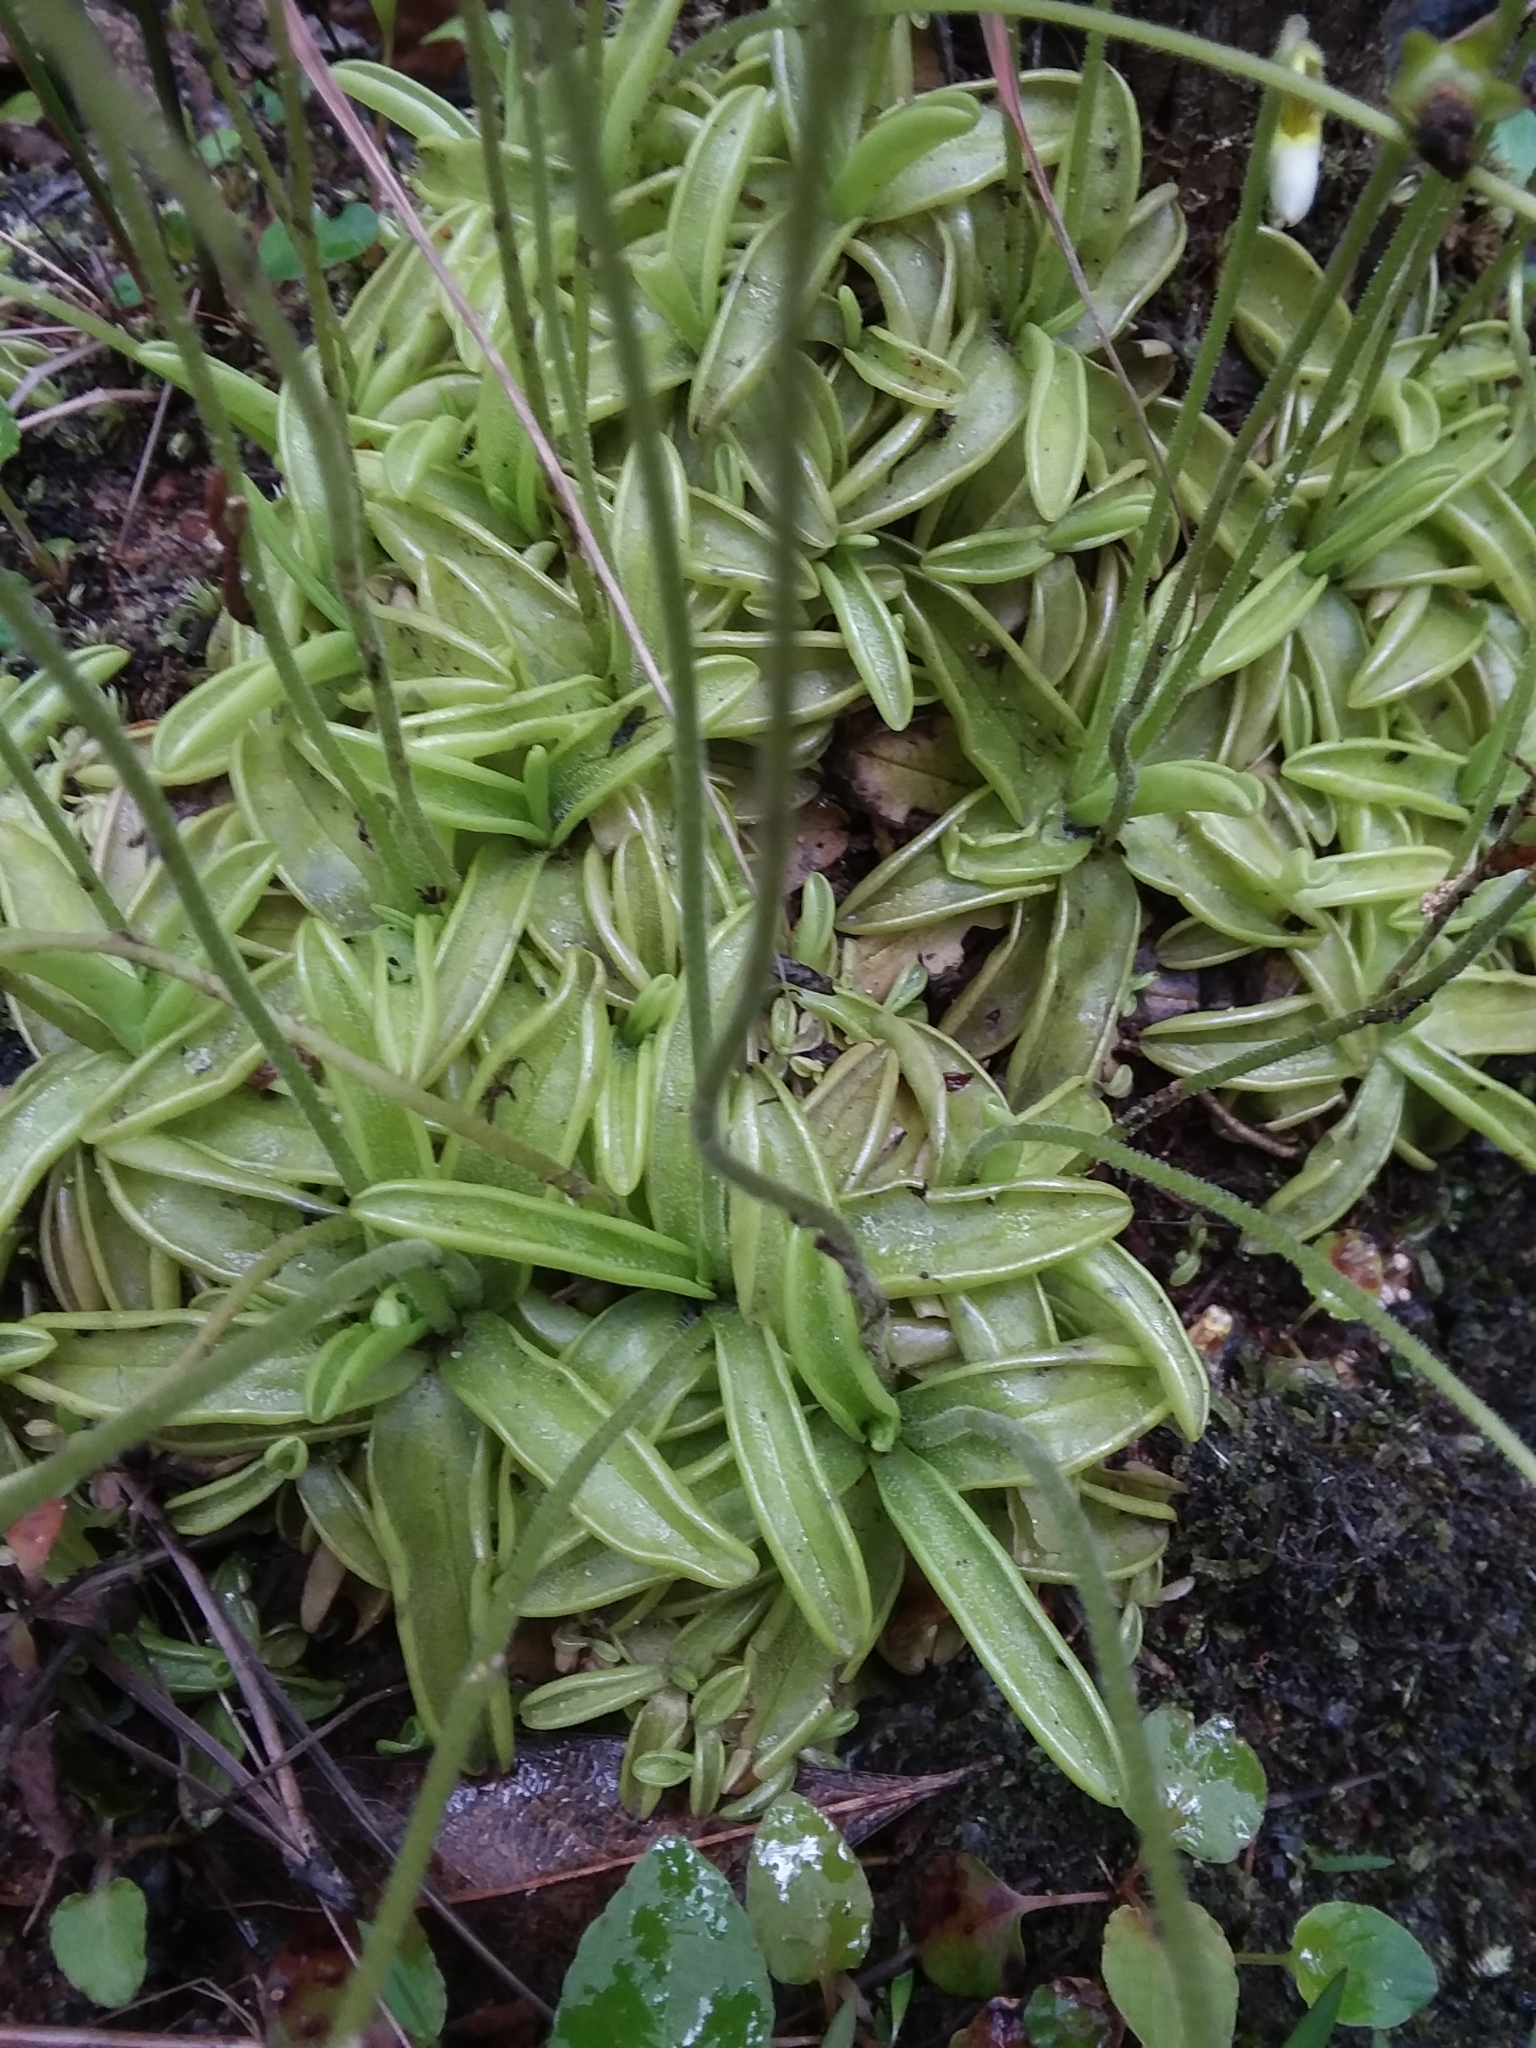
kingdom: Plantae
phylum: Tracheophyta
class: Magnoliopsida
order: Lamiales
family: Lentibulariaceae
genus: Pinguicula
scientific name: Pinguicula primuliflora
